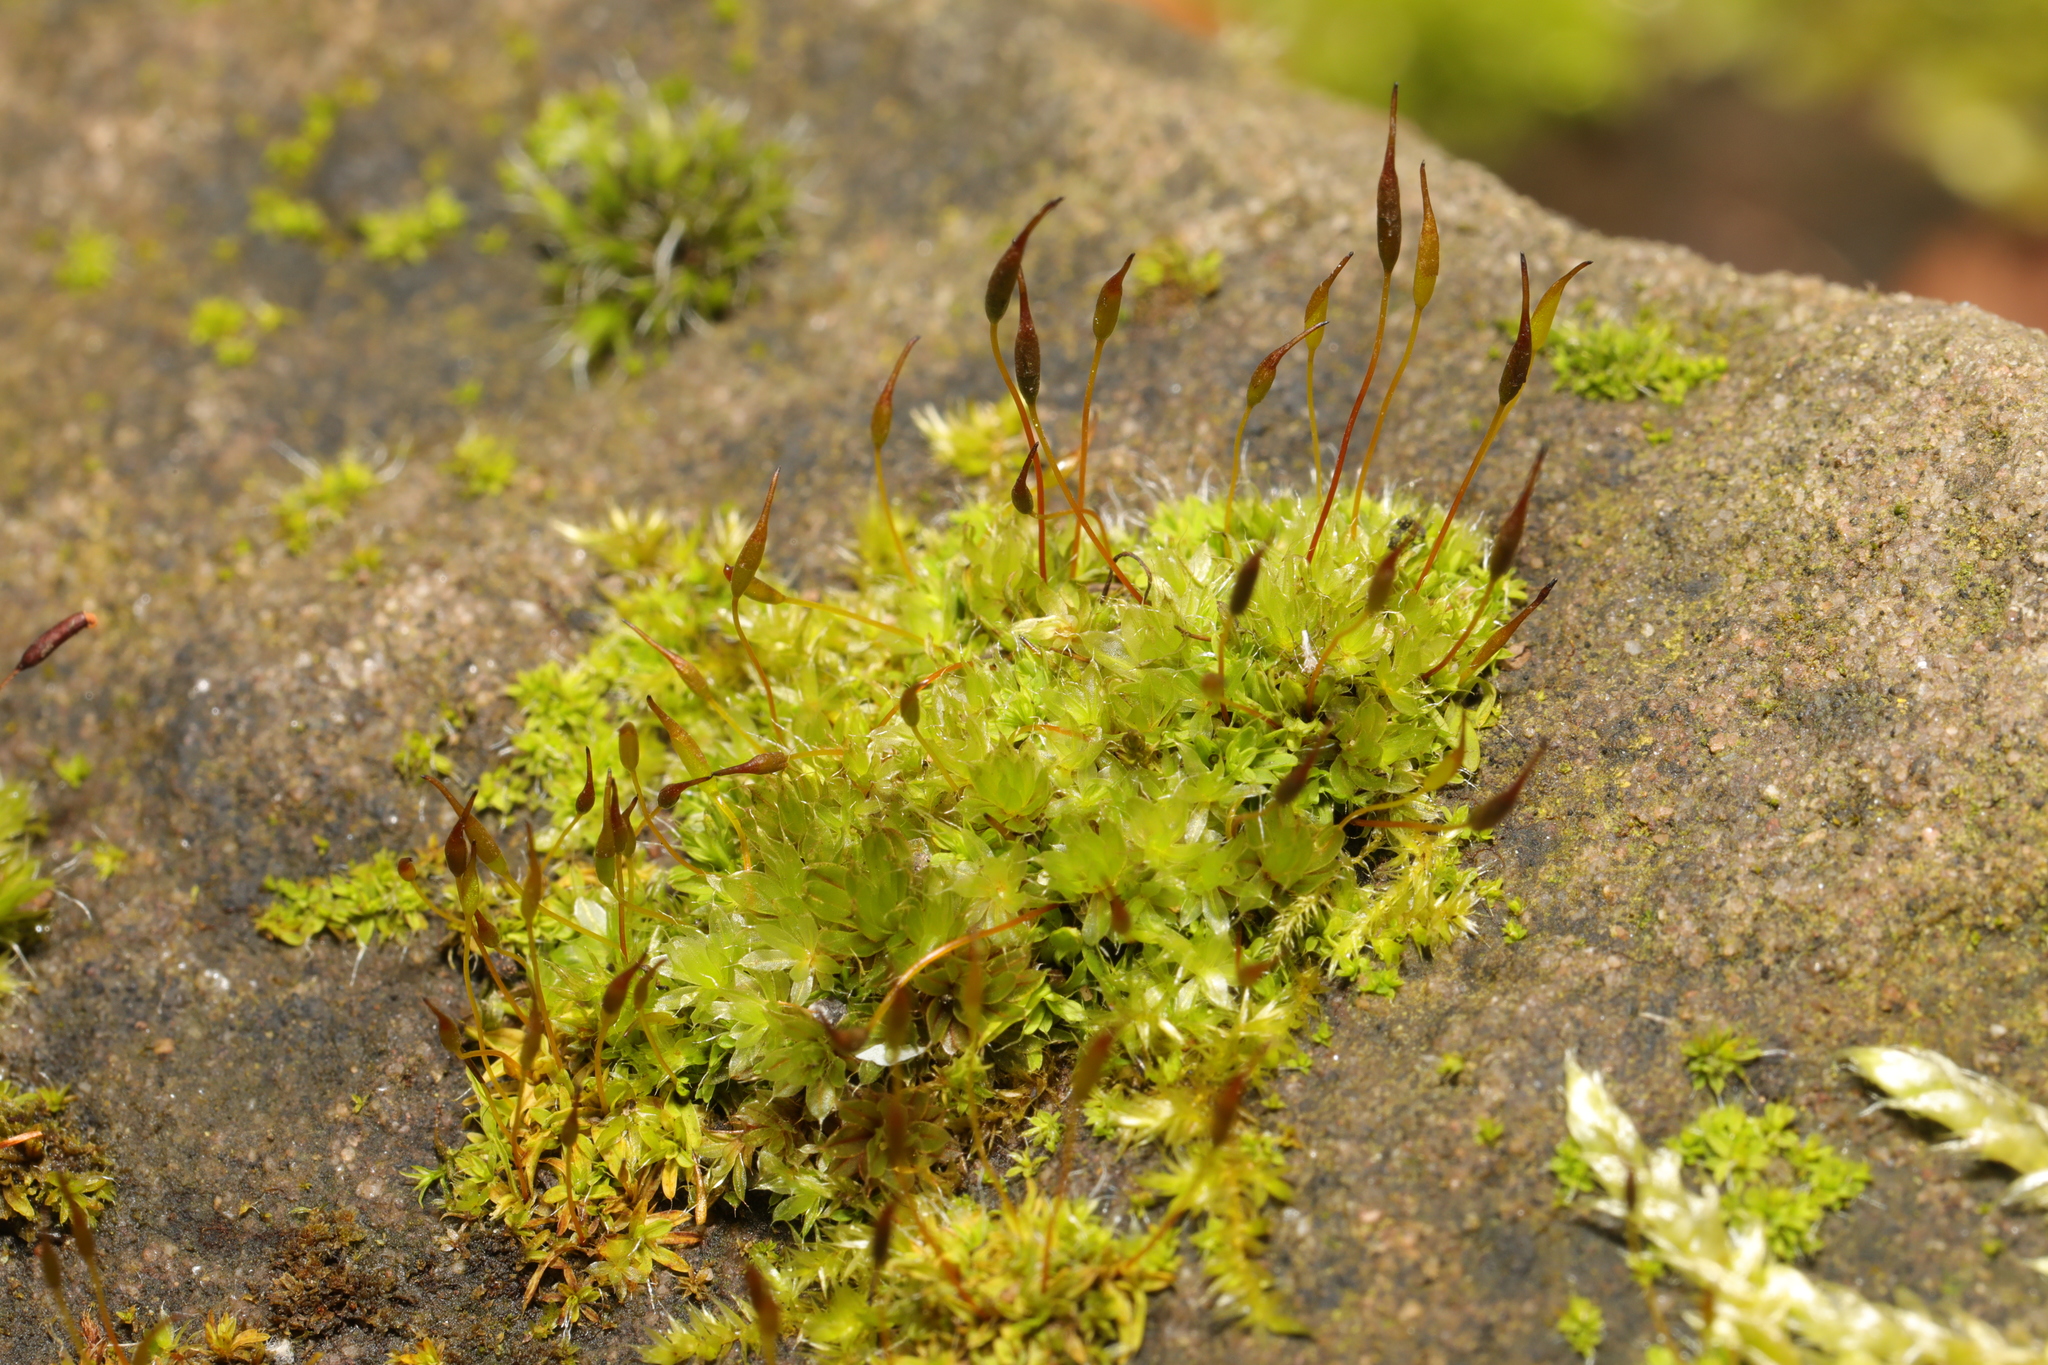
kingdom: Plantae
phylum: Bryophyta
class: Bryopsida
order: Pottiales
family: Pottiaceae
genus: Tortula
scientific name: Tortula muralis
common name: Wall screw-moss
